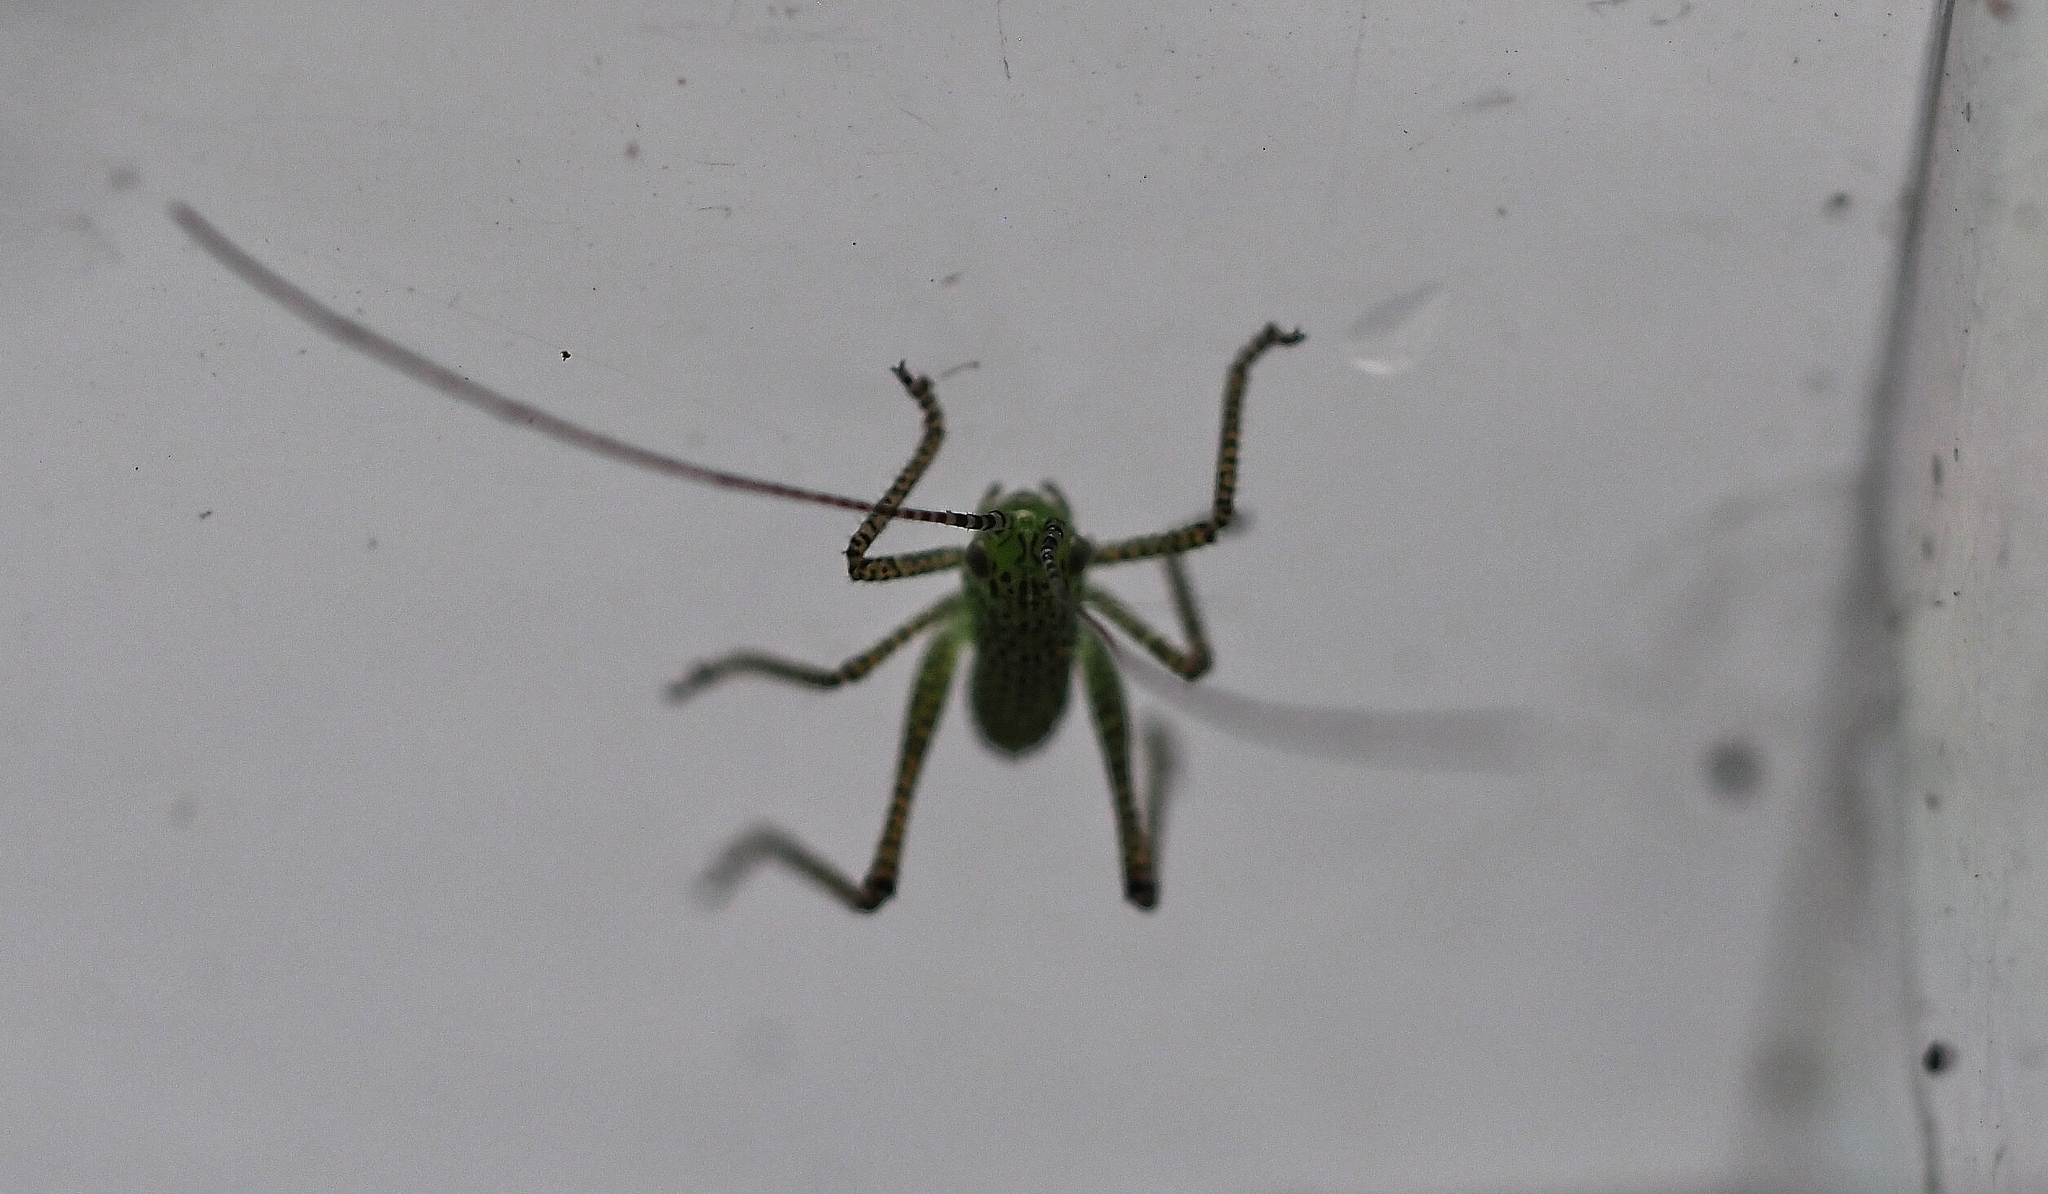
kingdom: Animalia
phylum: Arthropoda
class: Insecta
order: Orthoptera
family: Tettigoniidae
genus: Leptophyes
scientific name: Leptophyes punctatissima
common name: Speckled bush-cricket
